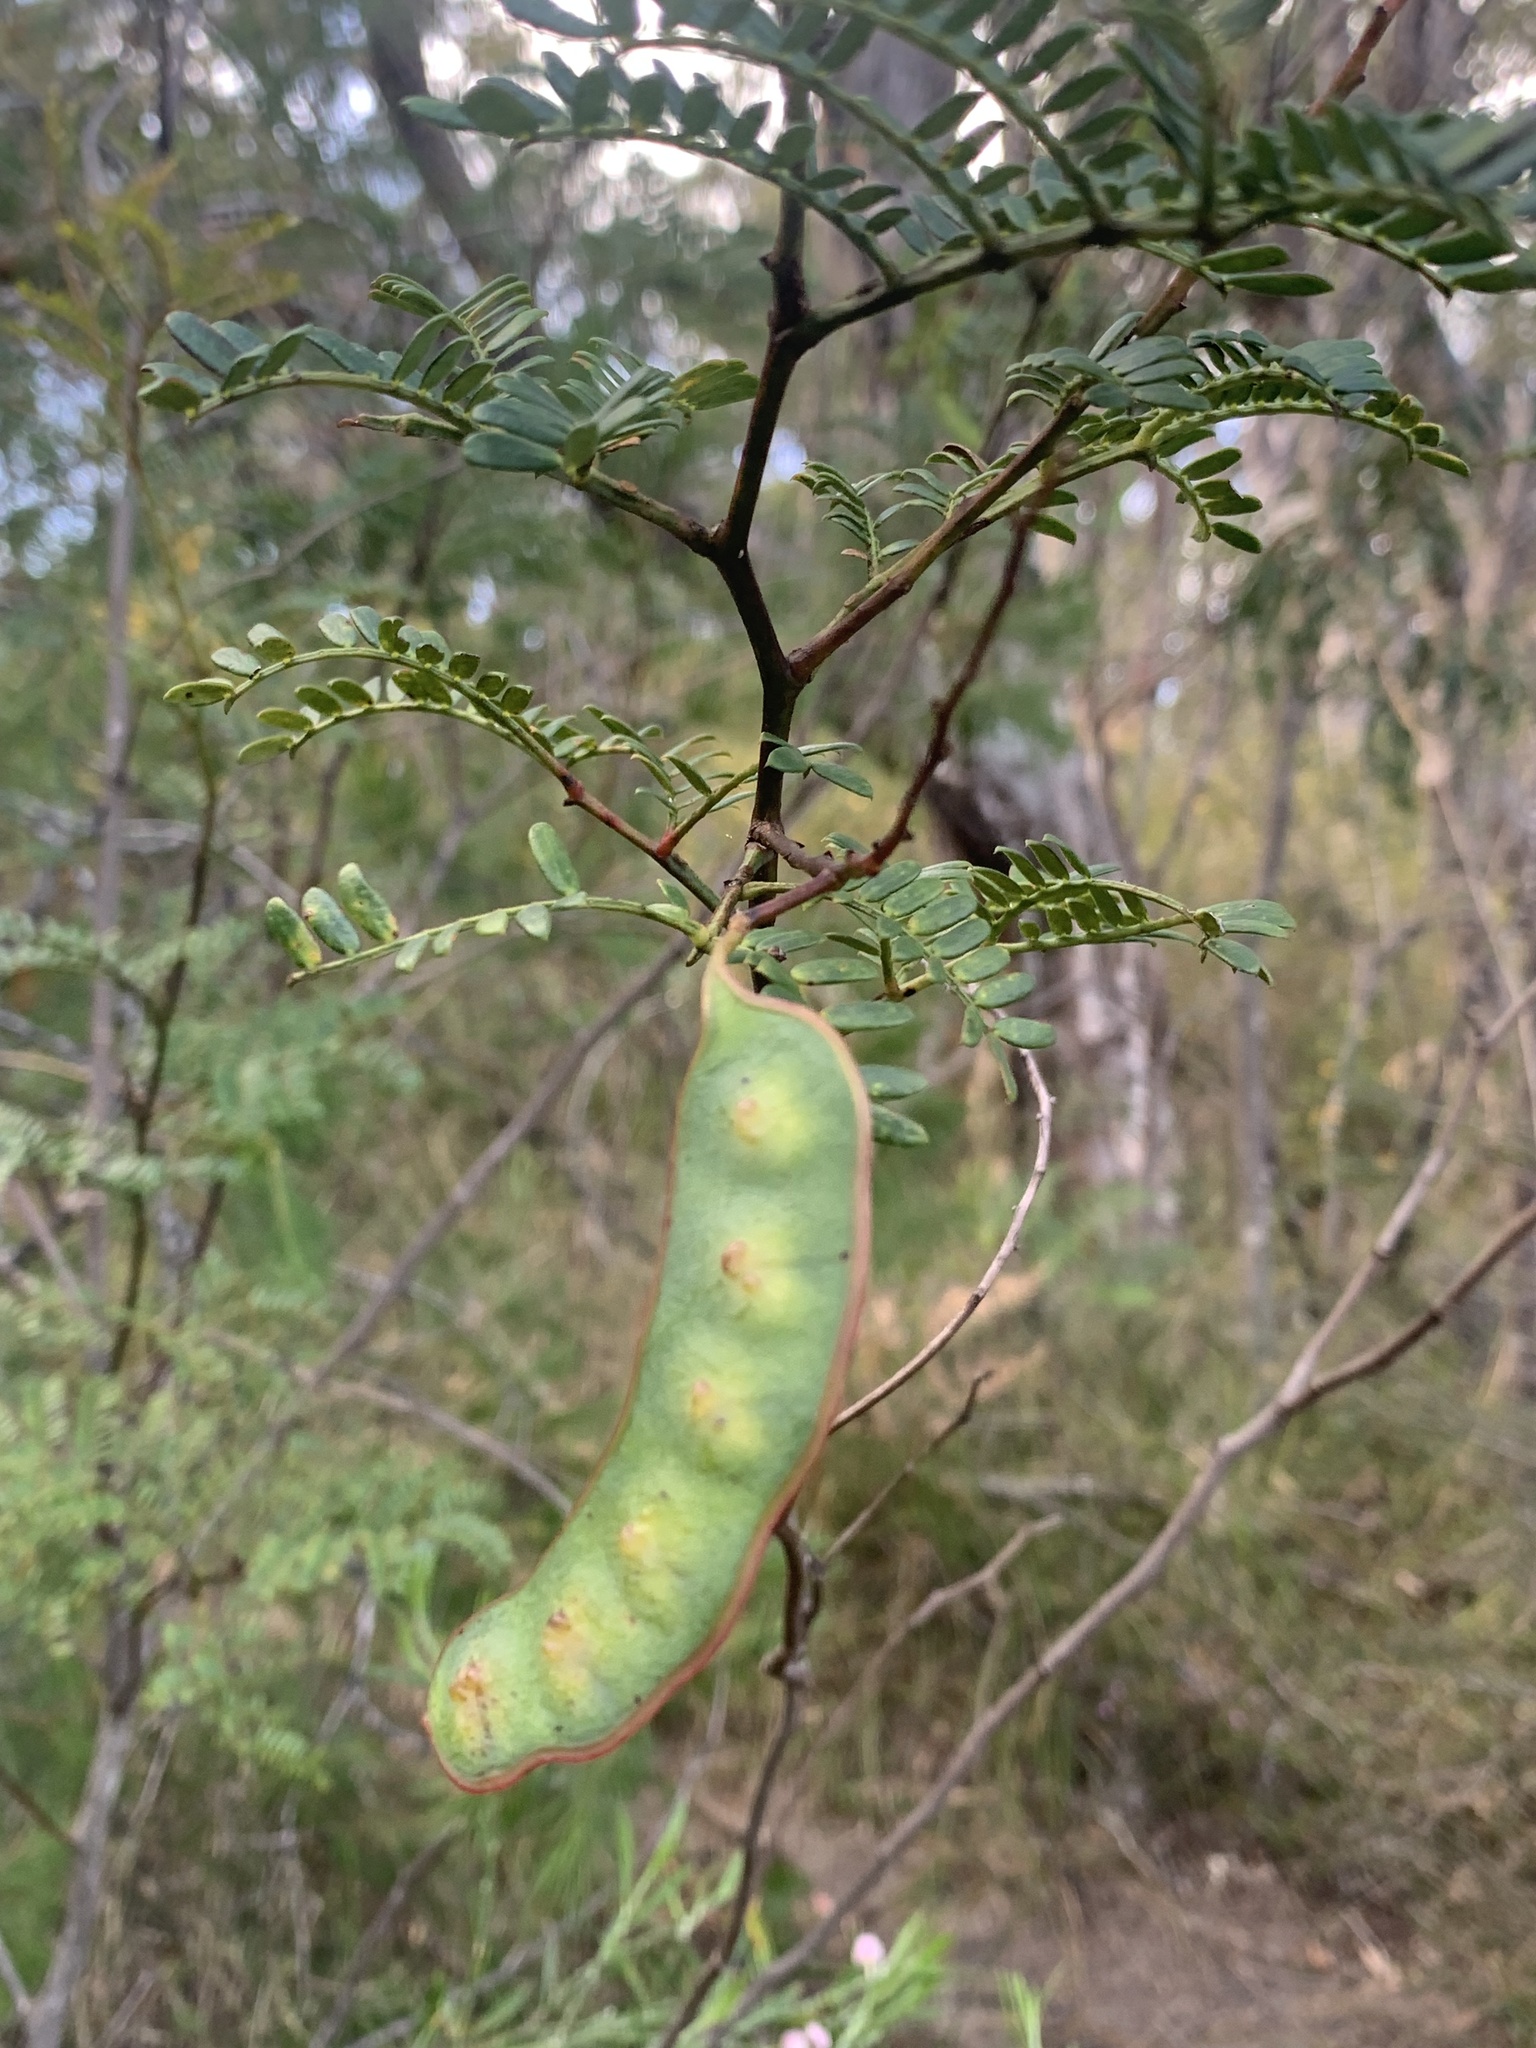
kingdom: Plantae
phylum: Tracheophyta
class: Magnoliopsida
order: Fabales
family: Fabaceae
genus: Acacia
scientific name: Acacia terminalis
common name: Cedar wattle
